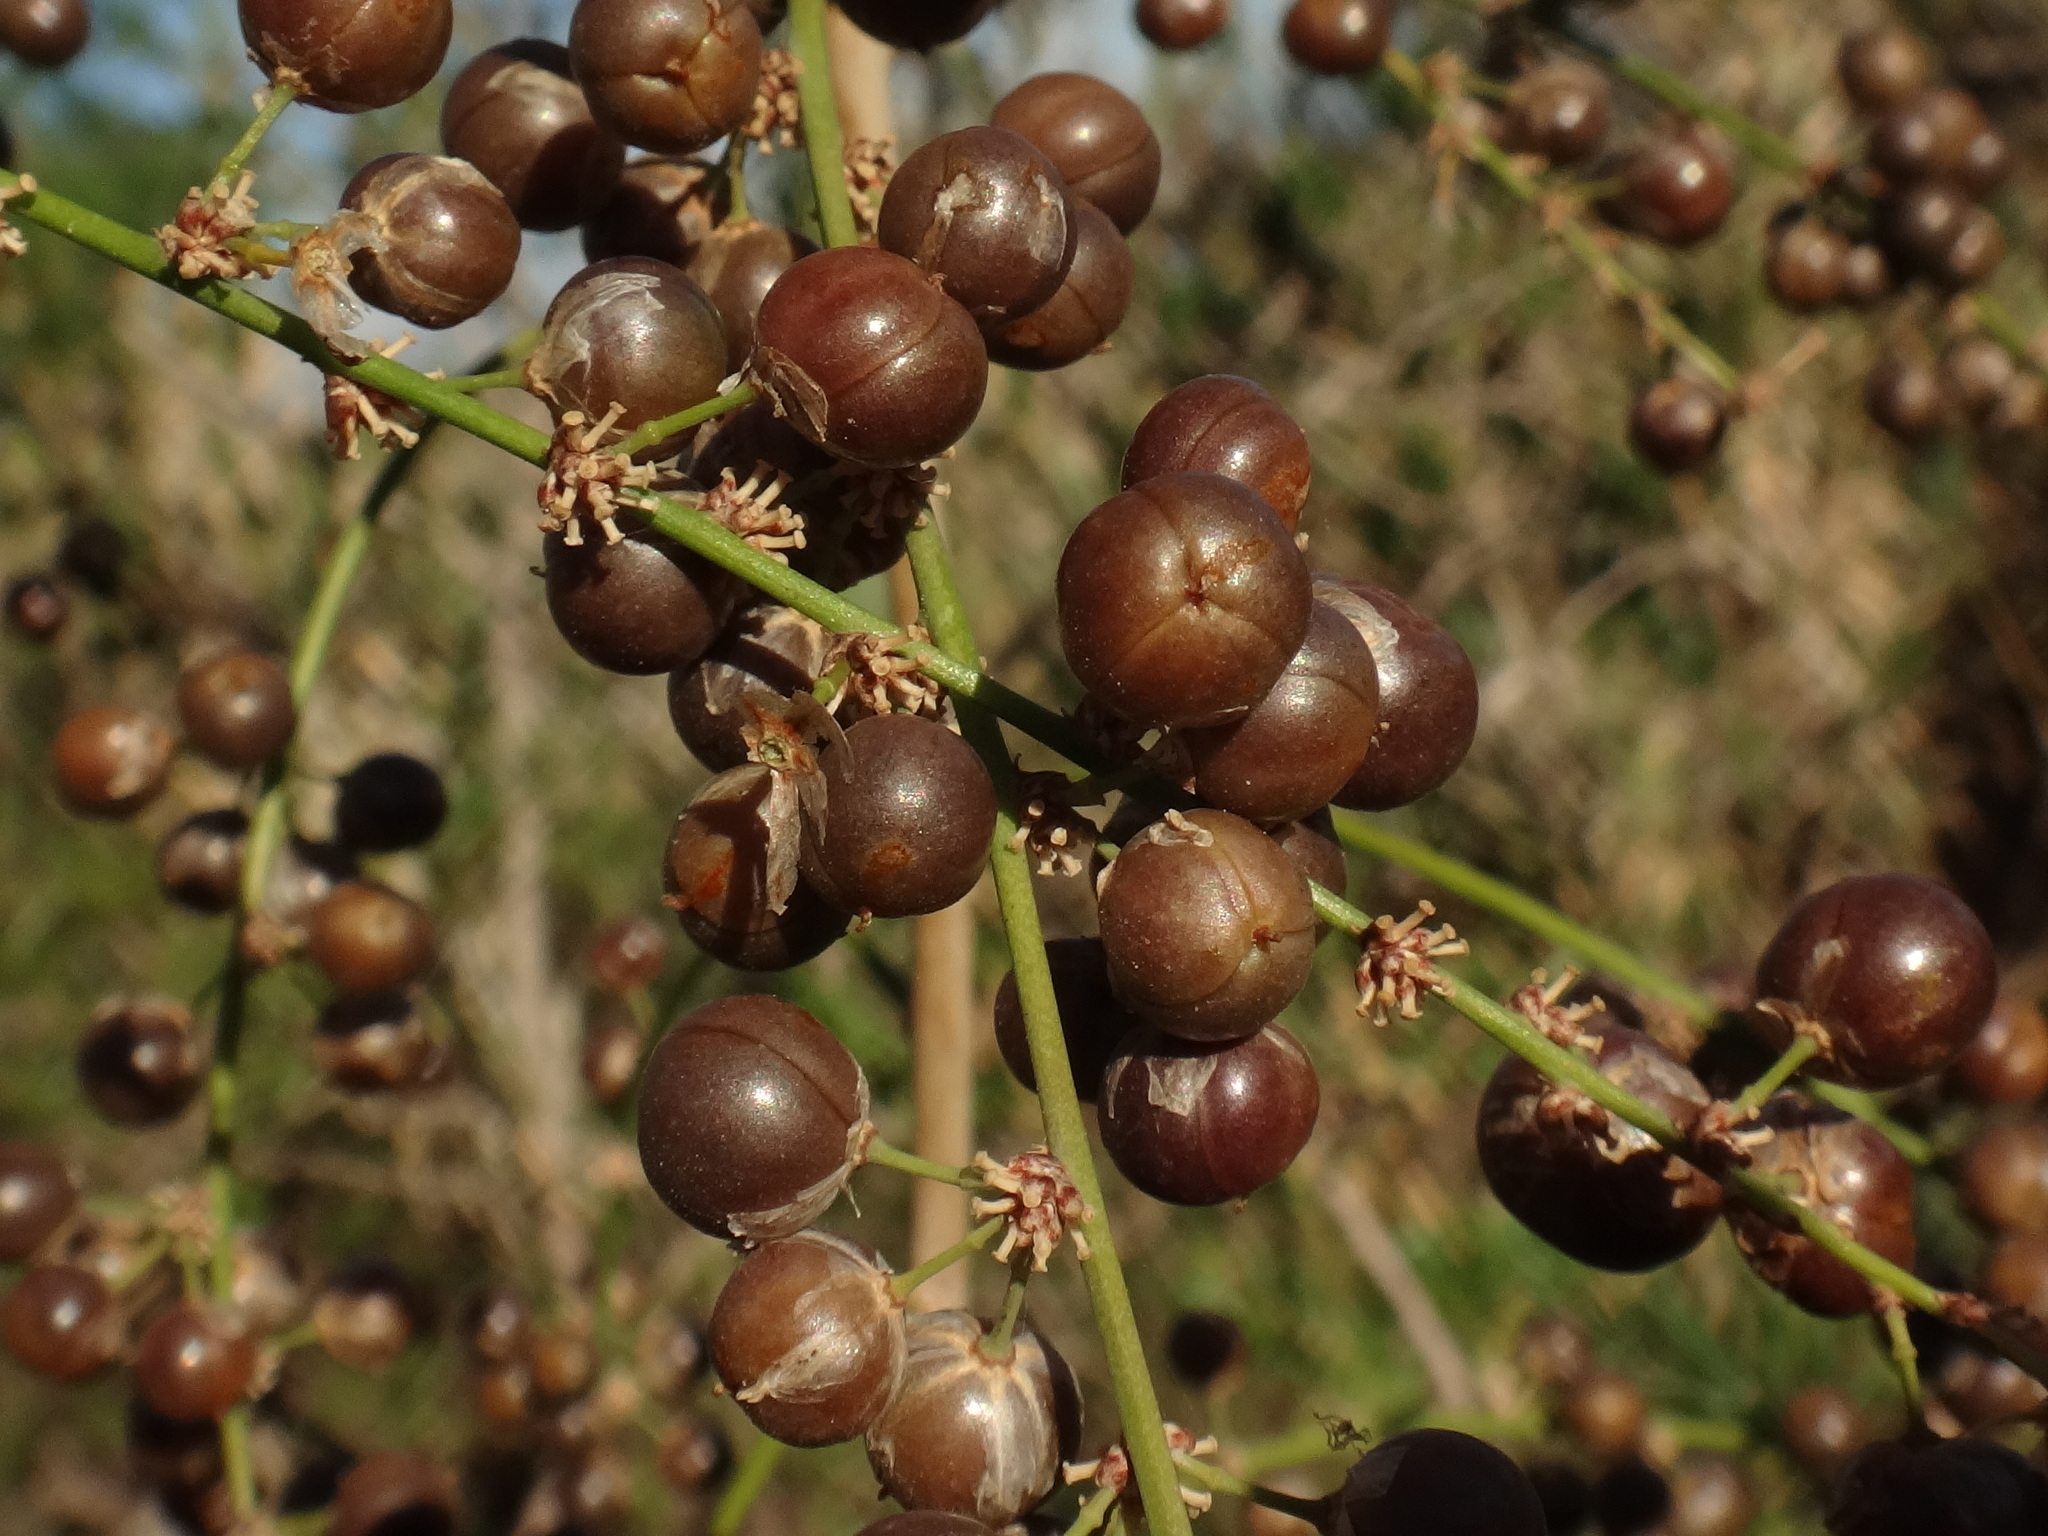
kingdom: Plantae
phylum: Tracheophyta
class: Liliopsida
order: Asparagales
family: Asparagaceae
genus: Asparagus
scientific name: Asparagus scoparius
